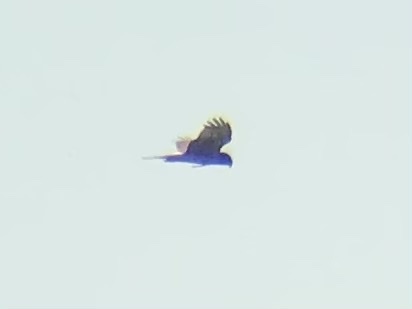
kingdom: Animalia
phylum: Chordata
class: Aves
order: Accipitriformes
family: Accipitridae
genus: Circus
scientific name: Circus cyaneus
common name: Hen harrier
